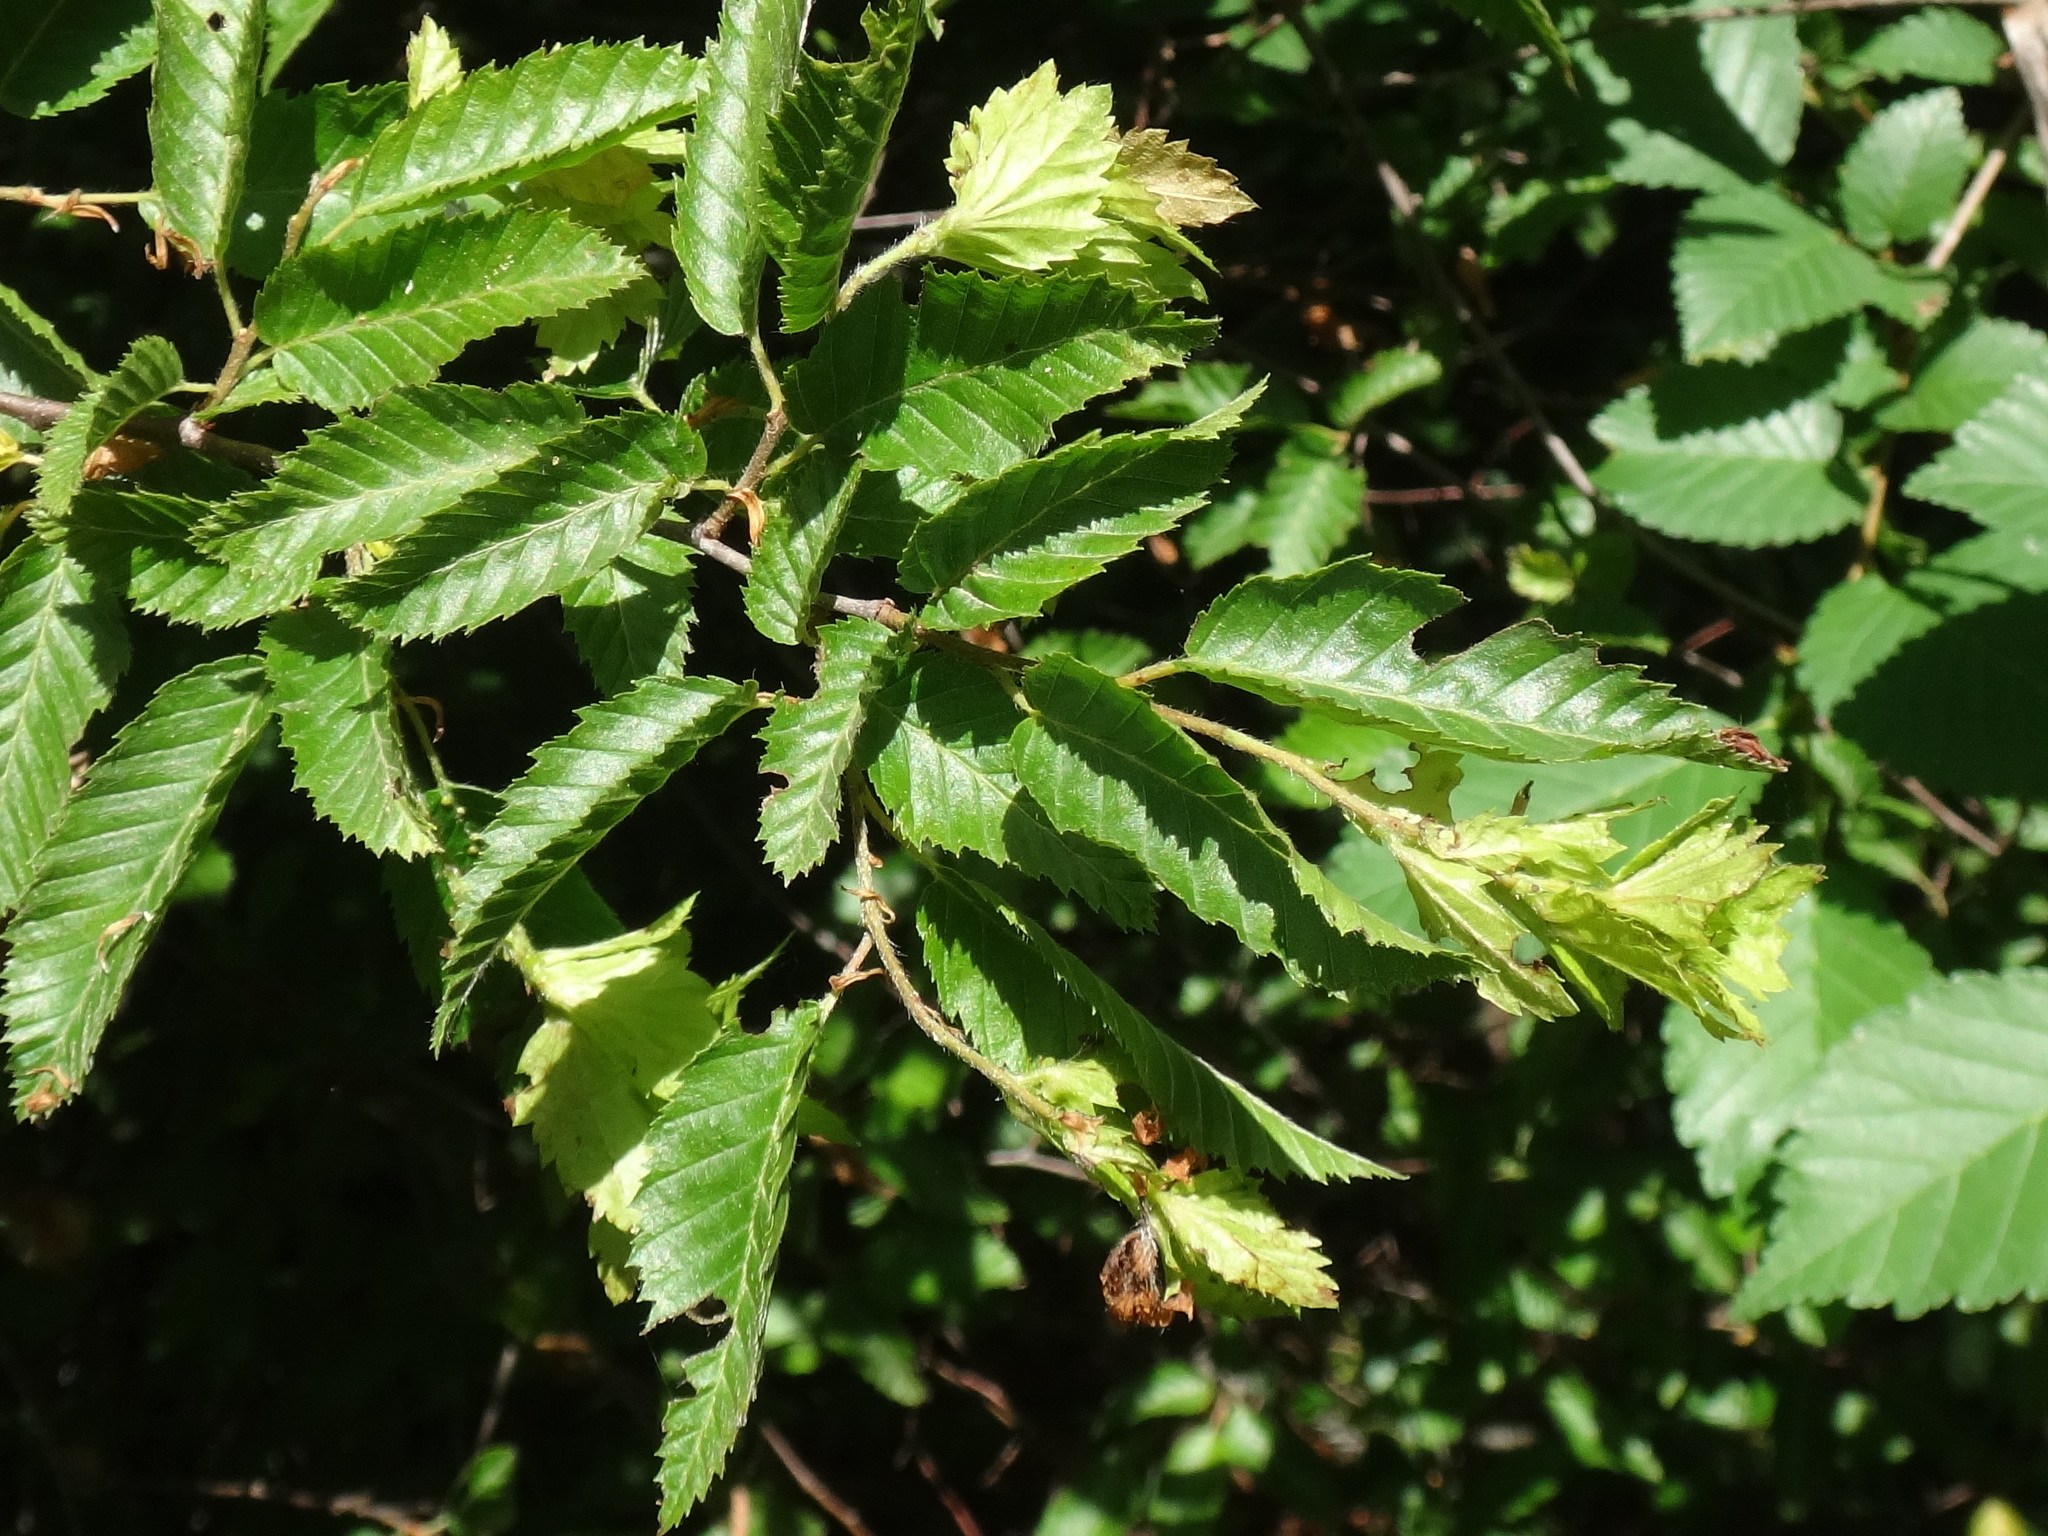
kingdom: Plantae
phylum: Tracheophyta
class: Magnoliopsida
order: Fagales
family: Betulaceae
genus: Carpinus
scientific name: Carpinus orientalis
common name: Eastern hornbeam
